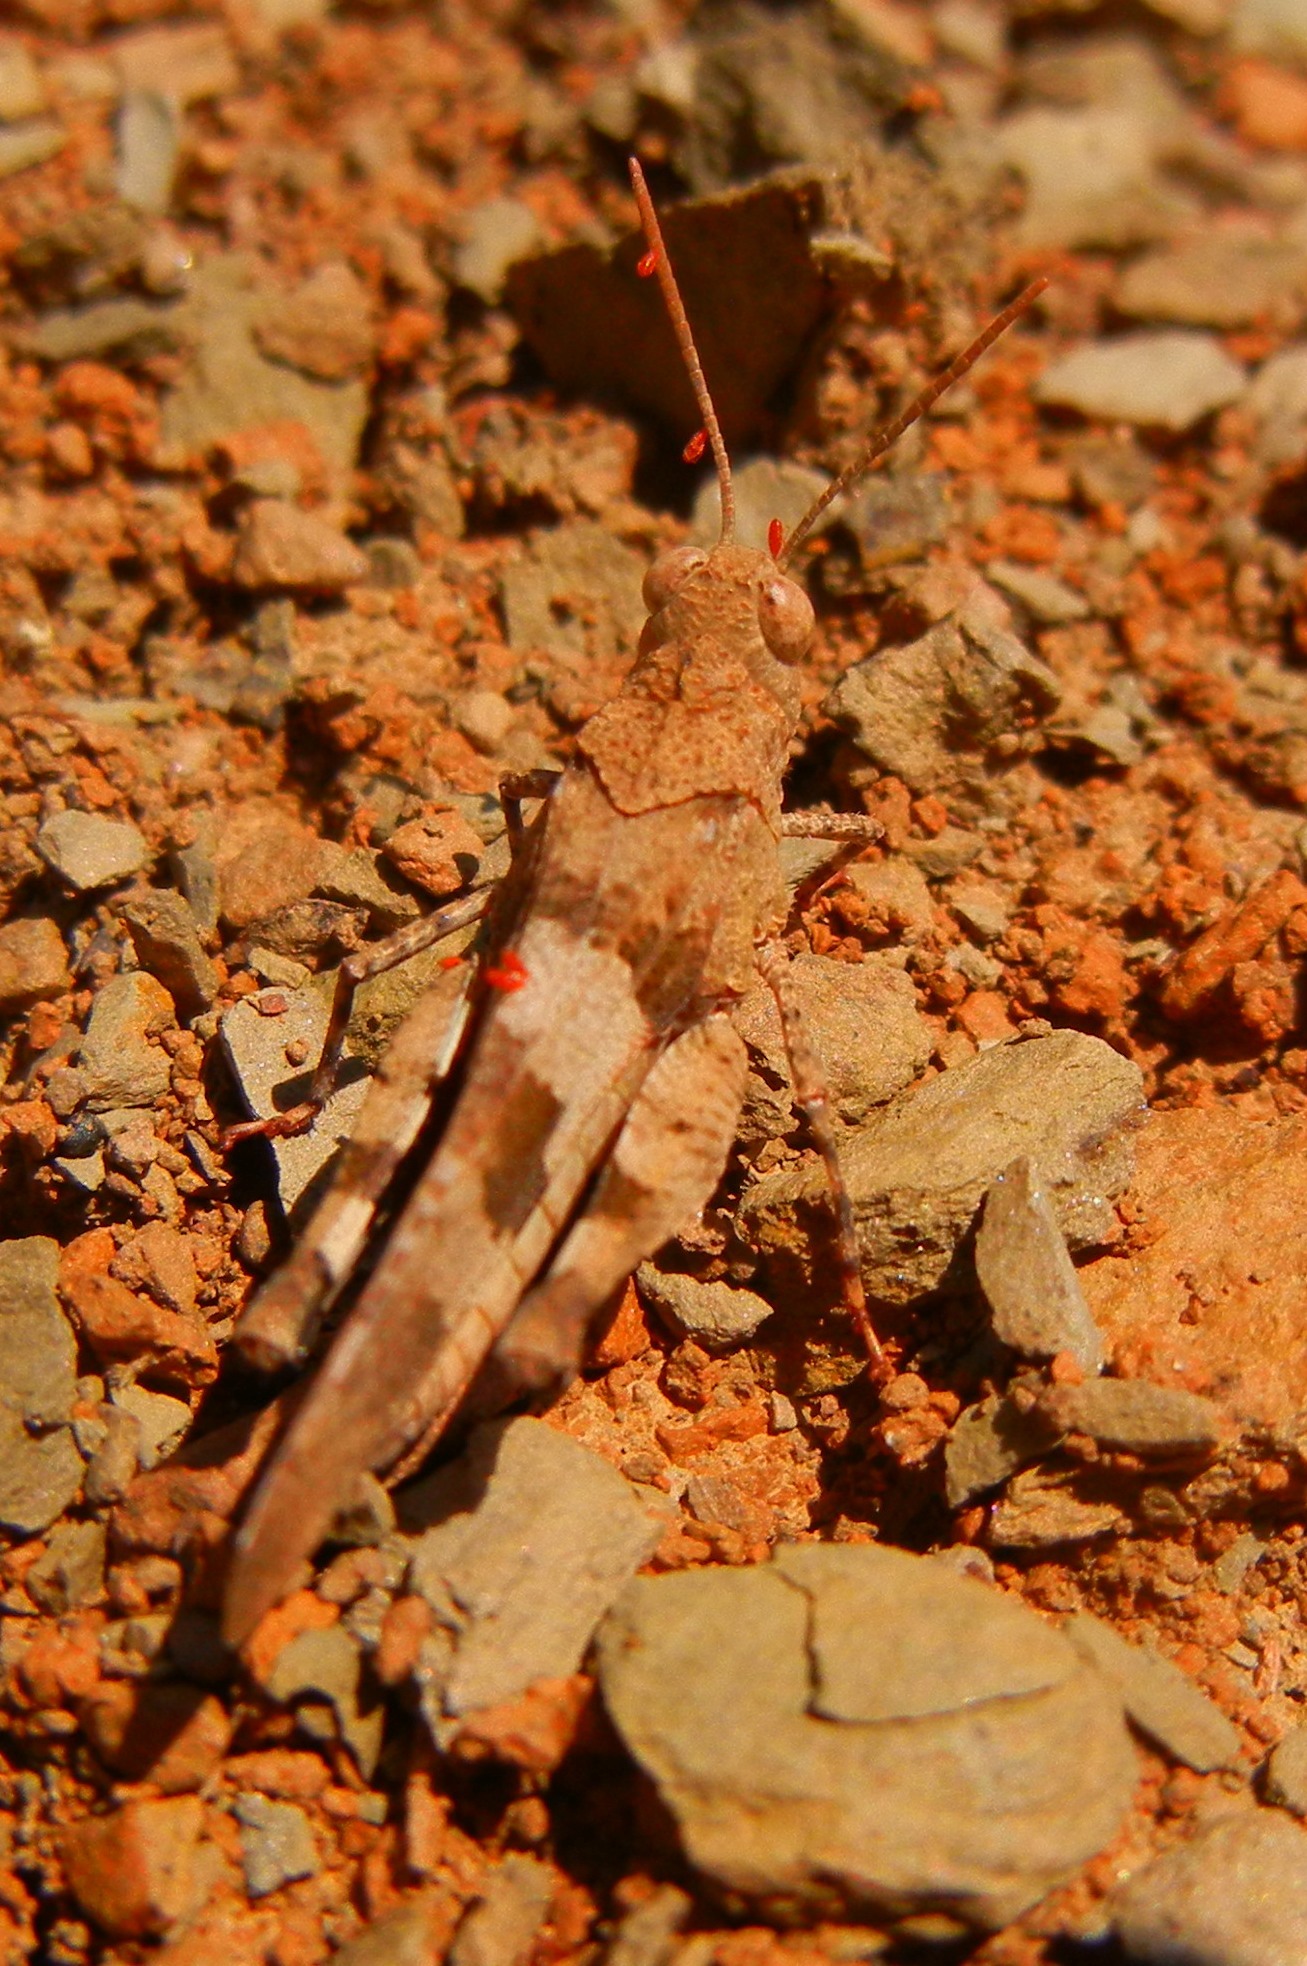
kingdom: Animalia
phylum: Arthropoda
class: Insecta
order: Orthoptera
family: Acrididae
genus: Oedipoda
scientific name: Oedipoda caerulescens
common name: Blue-winged grasshopper
